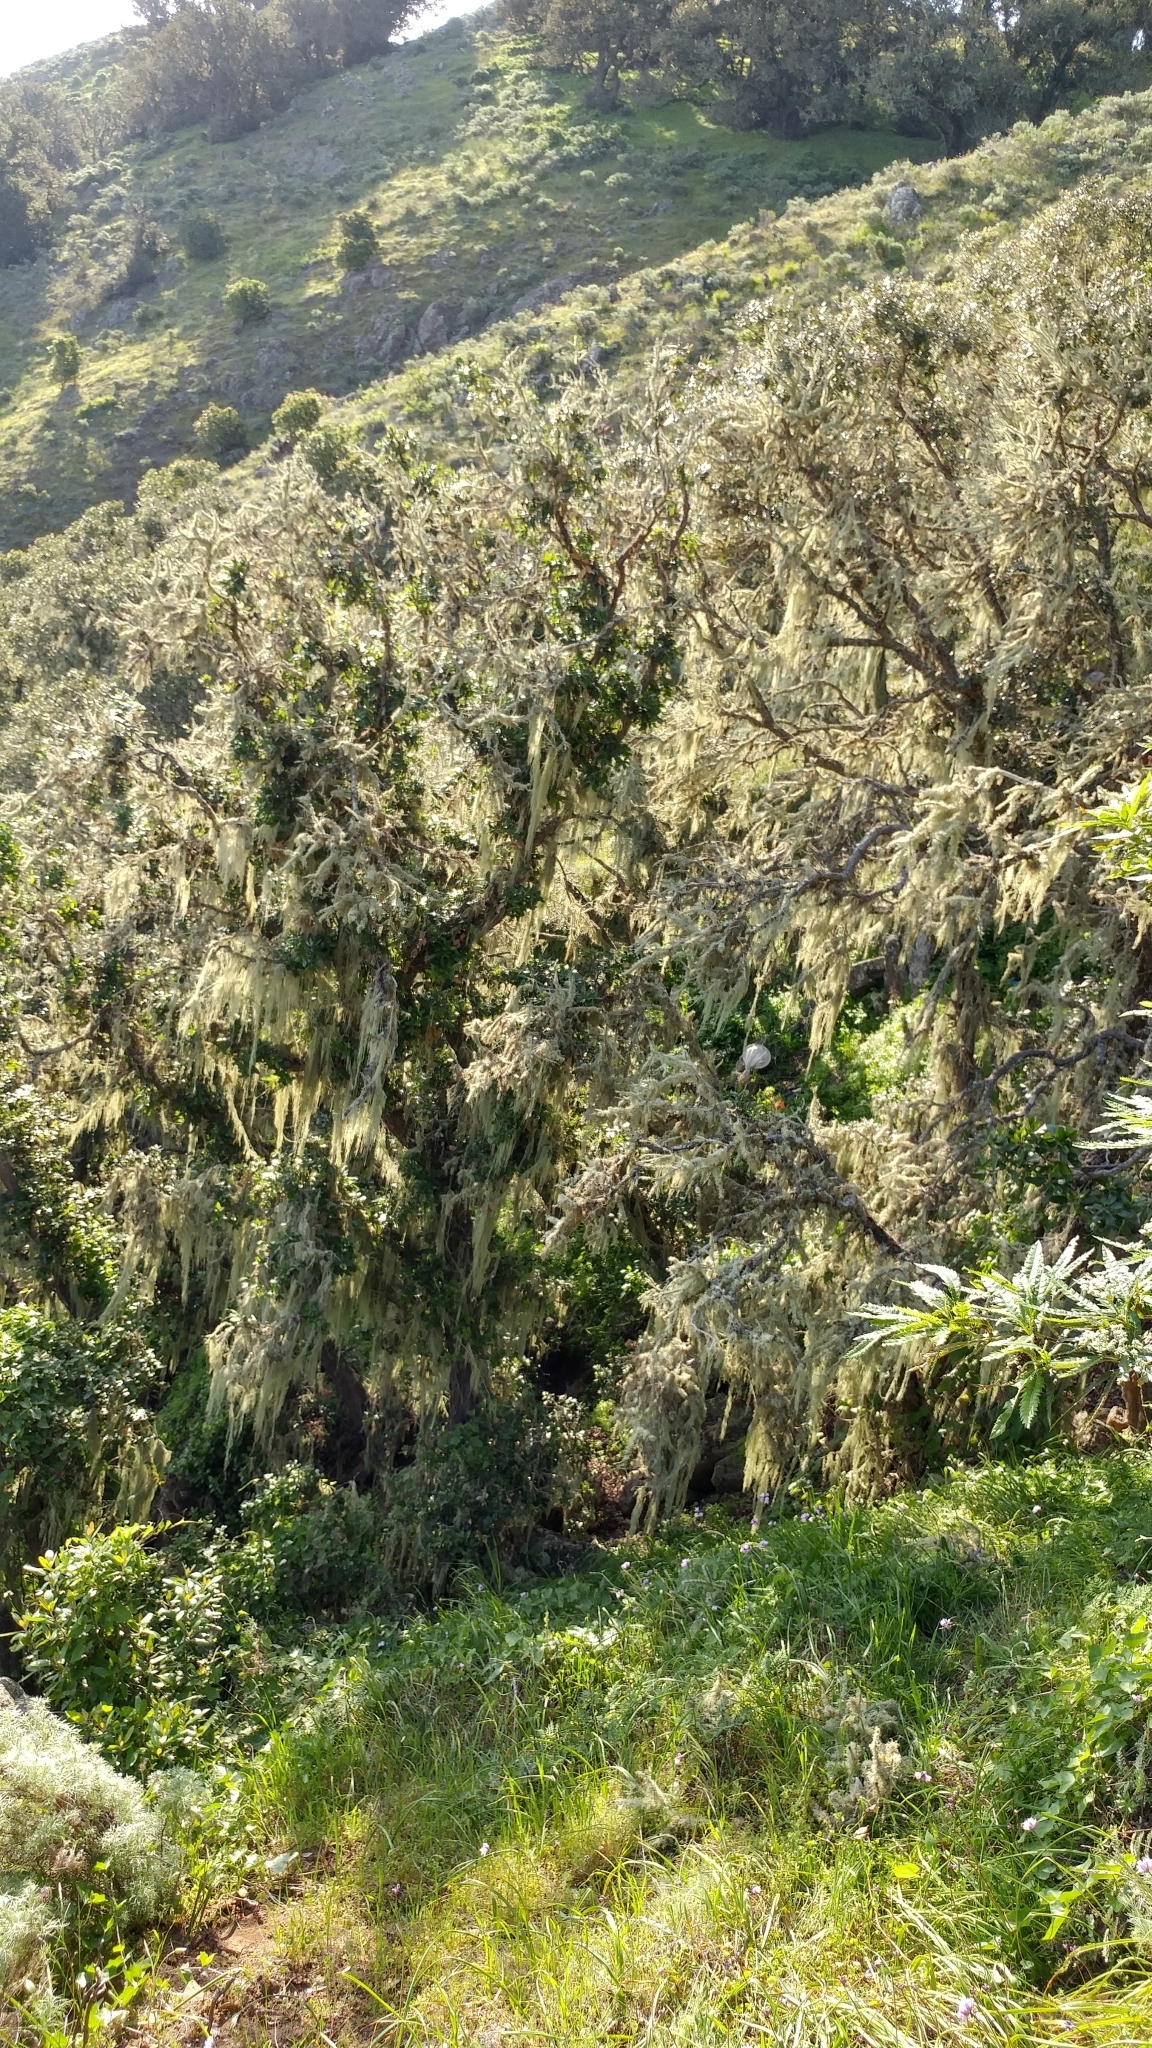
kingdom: Fungi
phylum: Ascomycota
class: Lecanoromycetes
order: Lecanorales
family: Ramalinaceae
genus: Ramalina
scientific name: Ramalina menziesii
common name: Lace lichen
